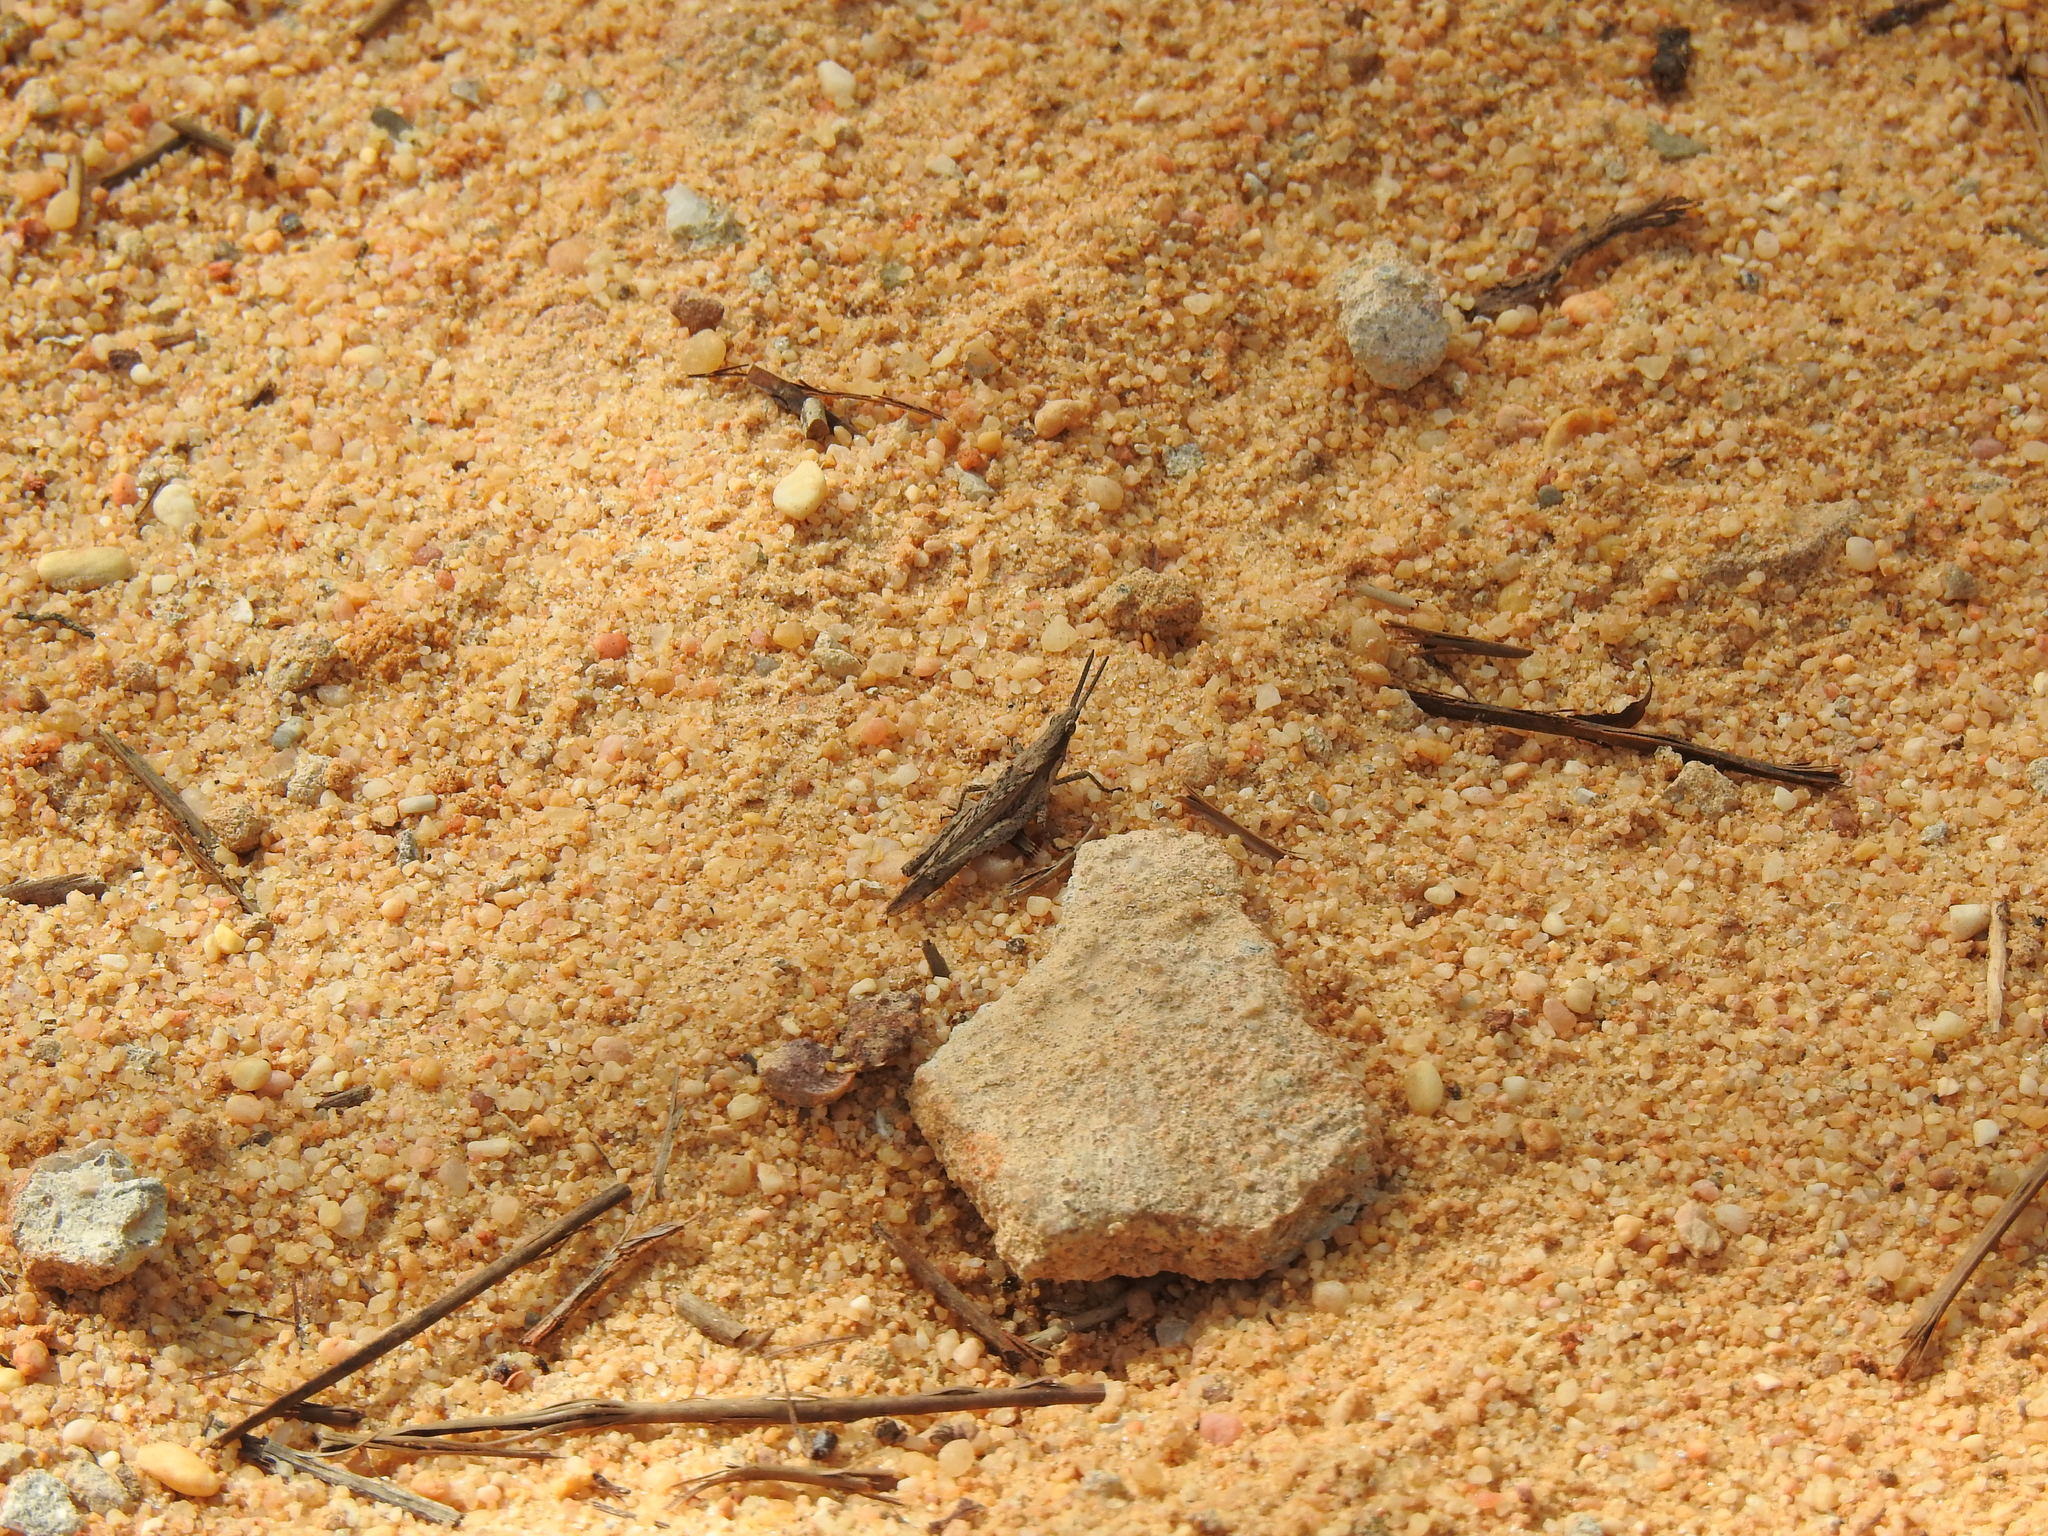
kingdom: Animalia
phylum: Arthropoda
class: Insecta
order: Orthoptera
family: Pyrgomorphidae
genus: Pyrgomorpha
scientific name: Pyrgomorpha conica
